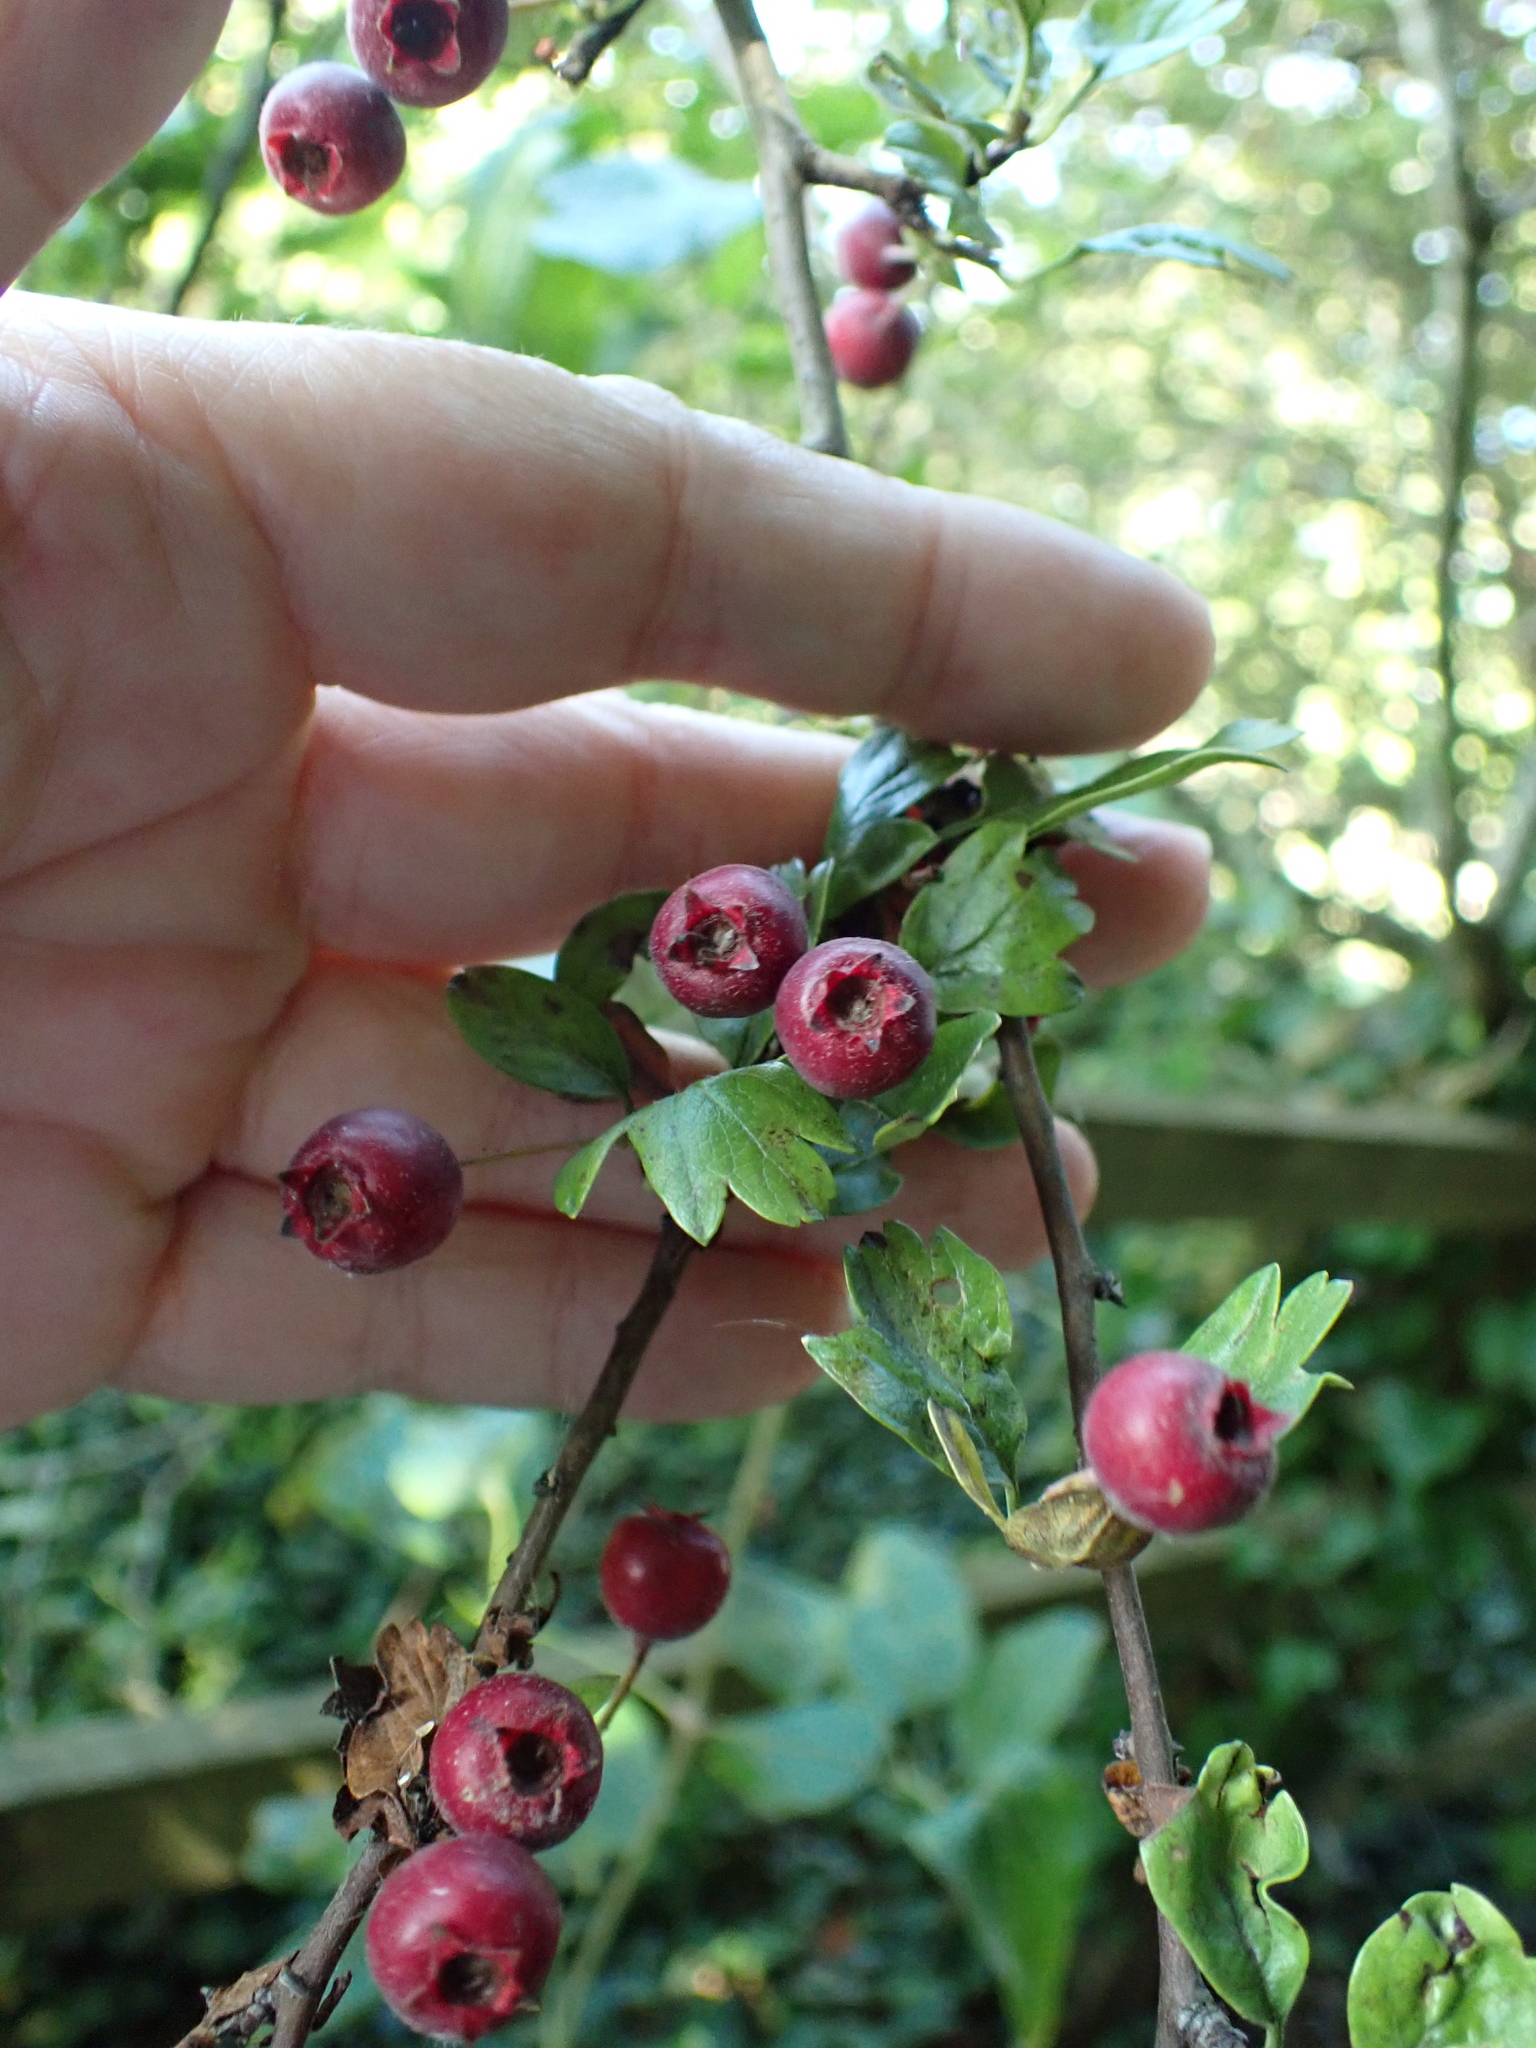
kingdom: Plantae
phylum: Tracheophyta
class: Magnoliopsida
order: Rosales
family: Rosaceae
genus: Crataegus
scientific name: Crataegus monogyna
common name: Hawthorn
